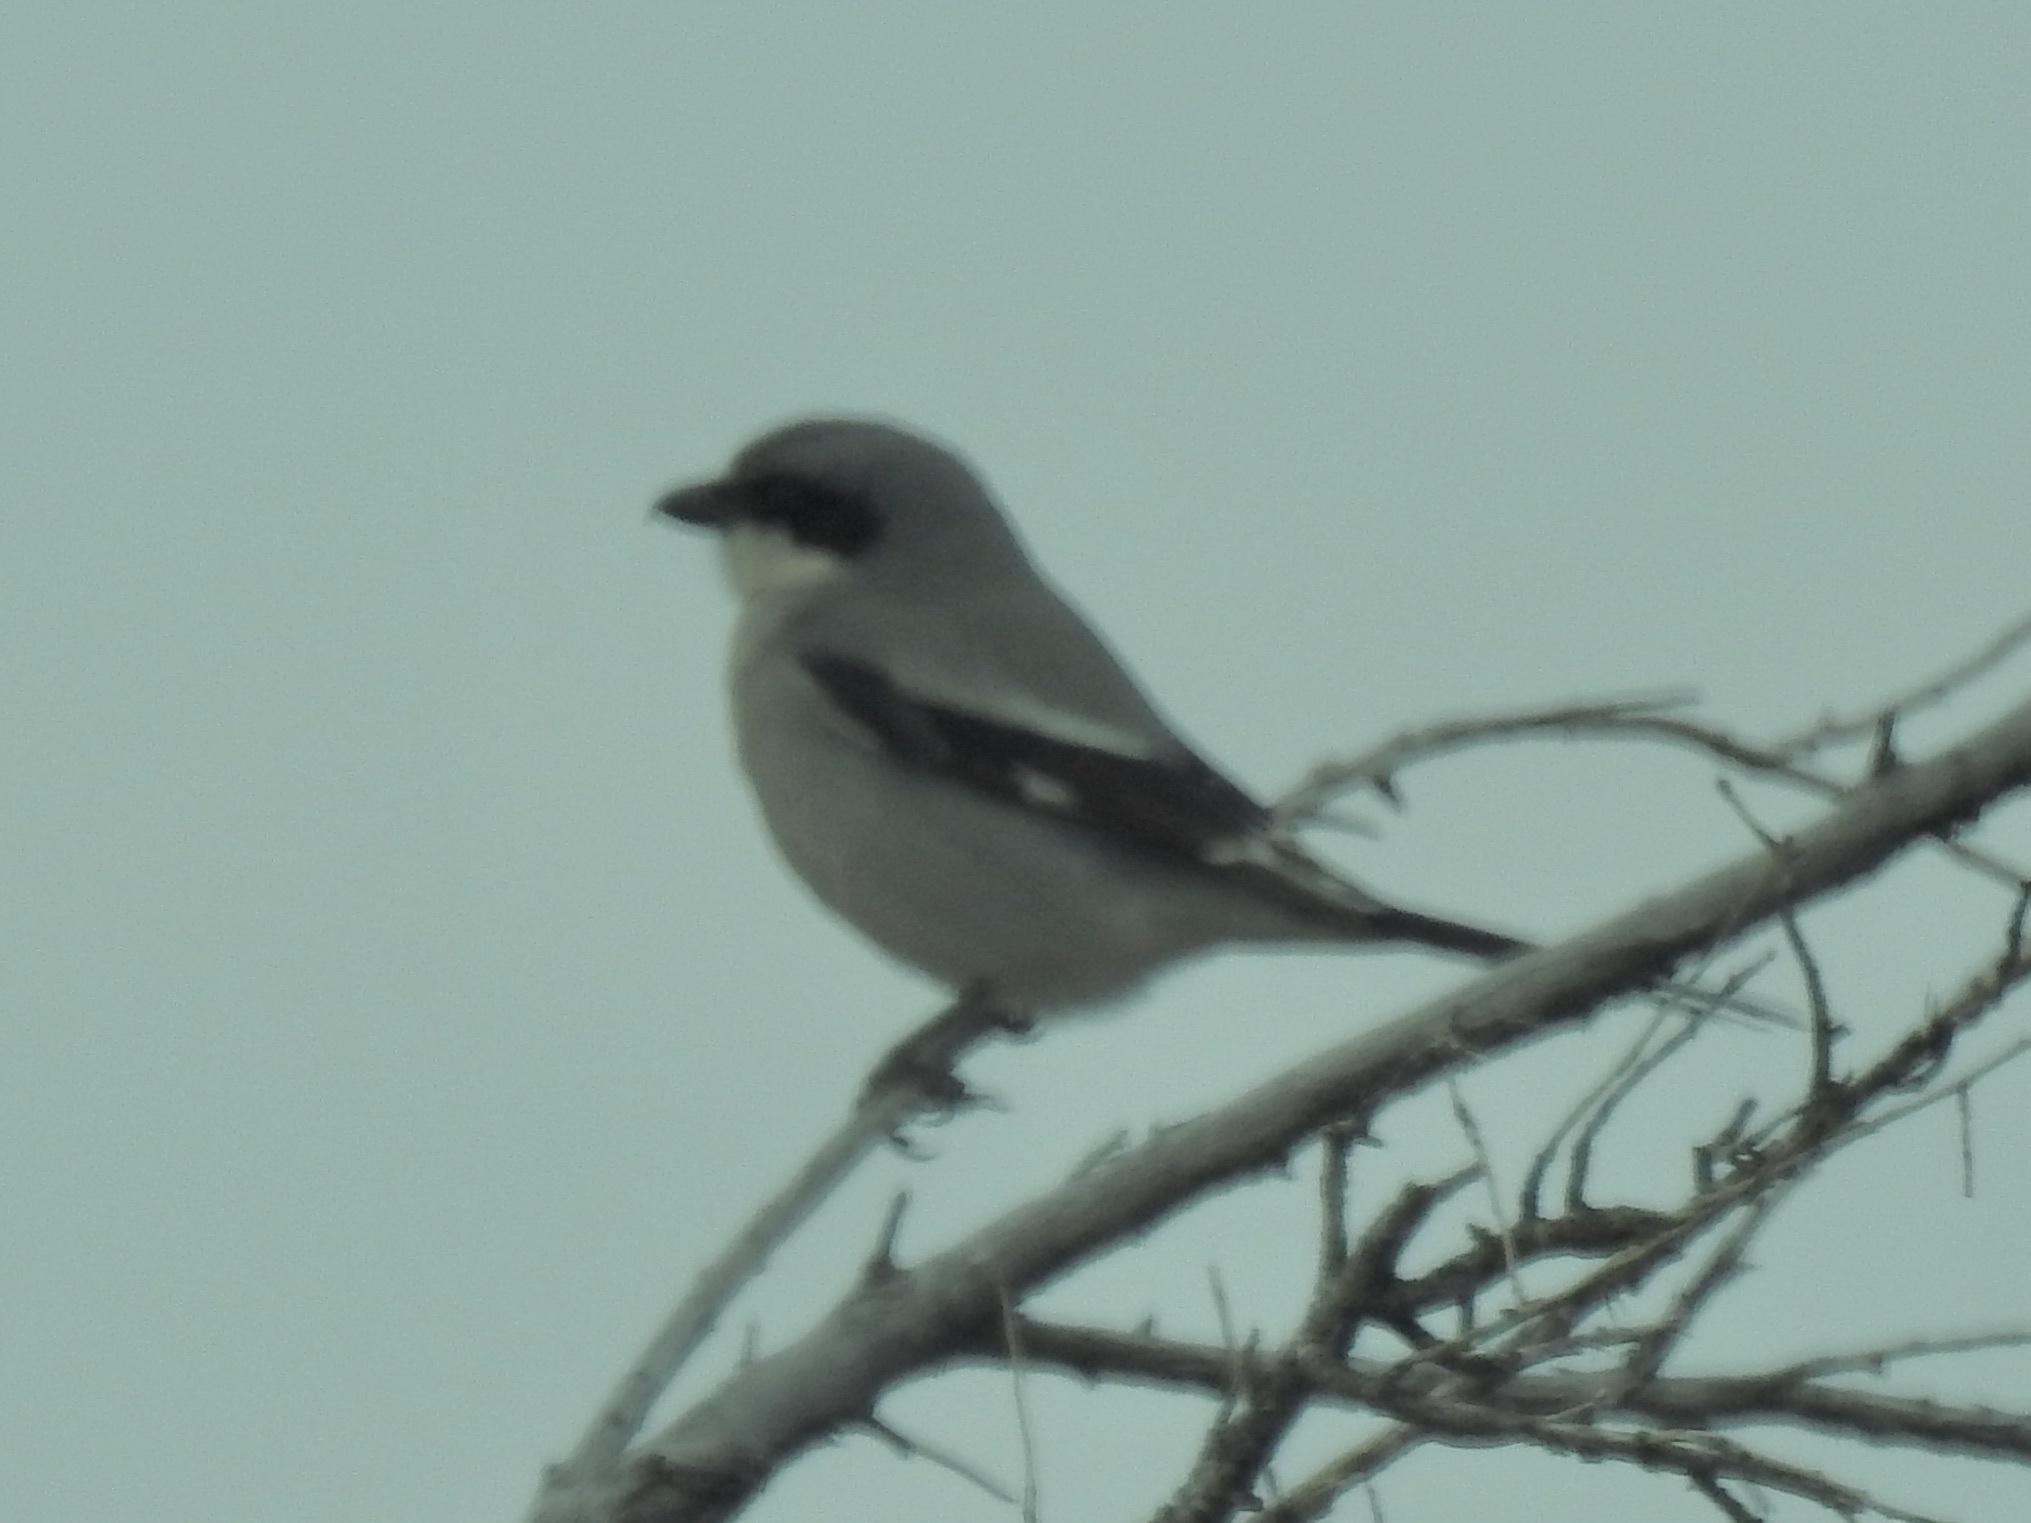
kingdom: Animalia
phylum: Chordata
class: Aves
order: Passeriformes
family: Laniidae
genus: Lanius
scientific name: Lanius ludovicianus
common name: Loggerhead shrike
